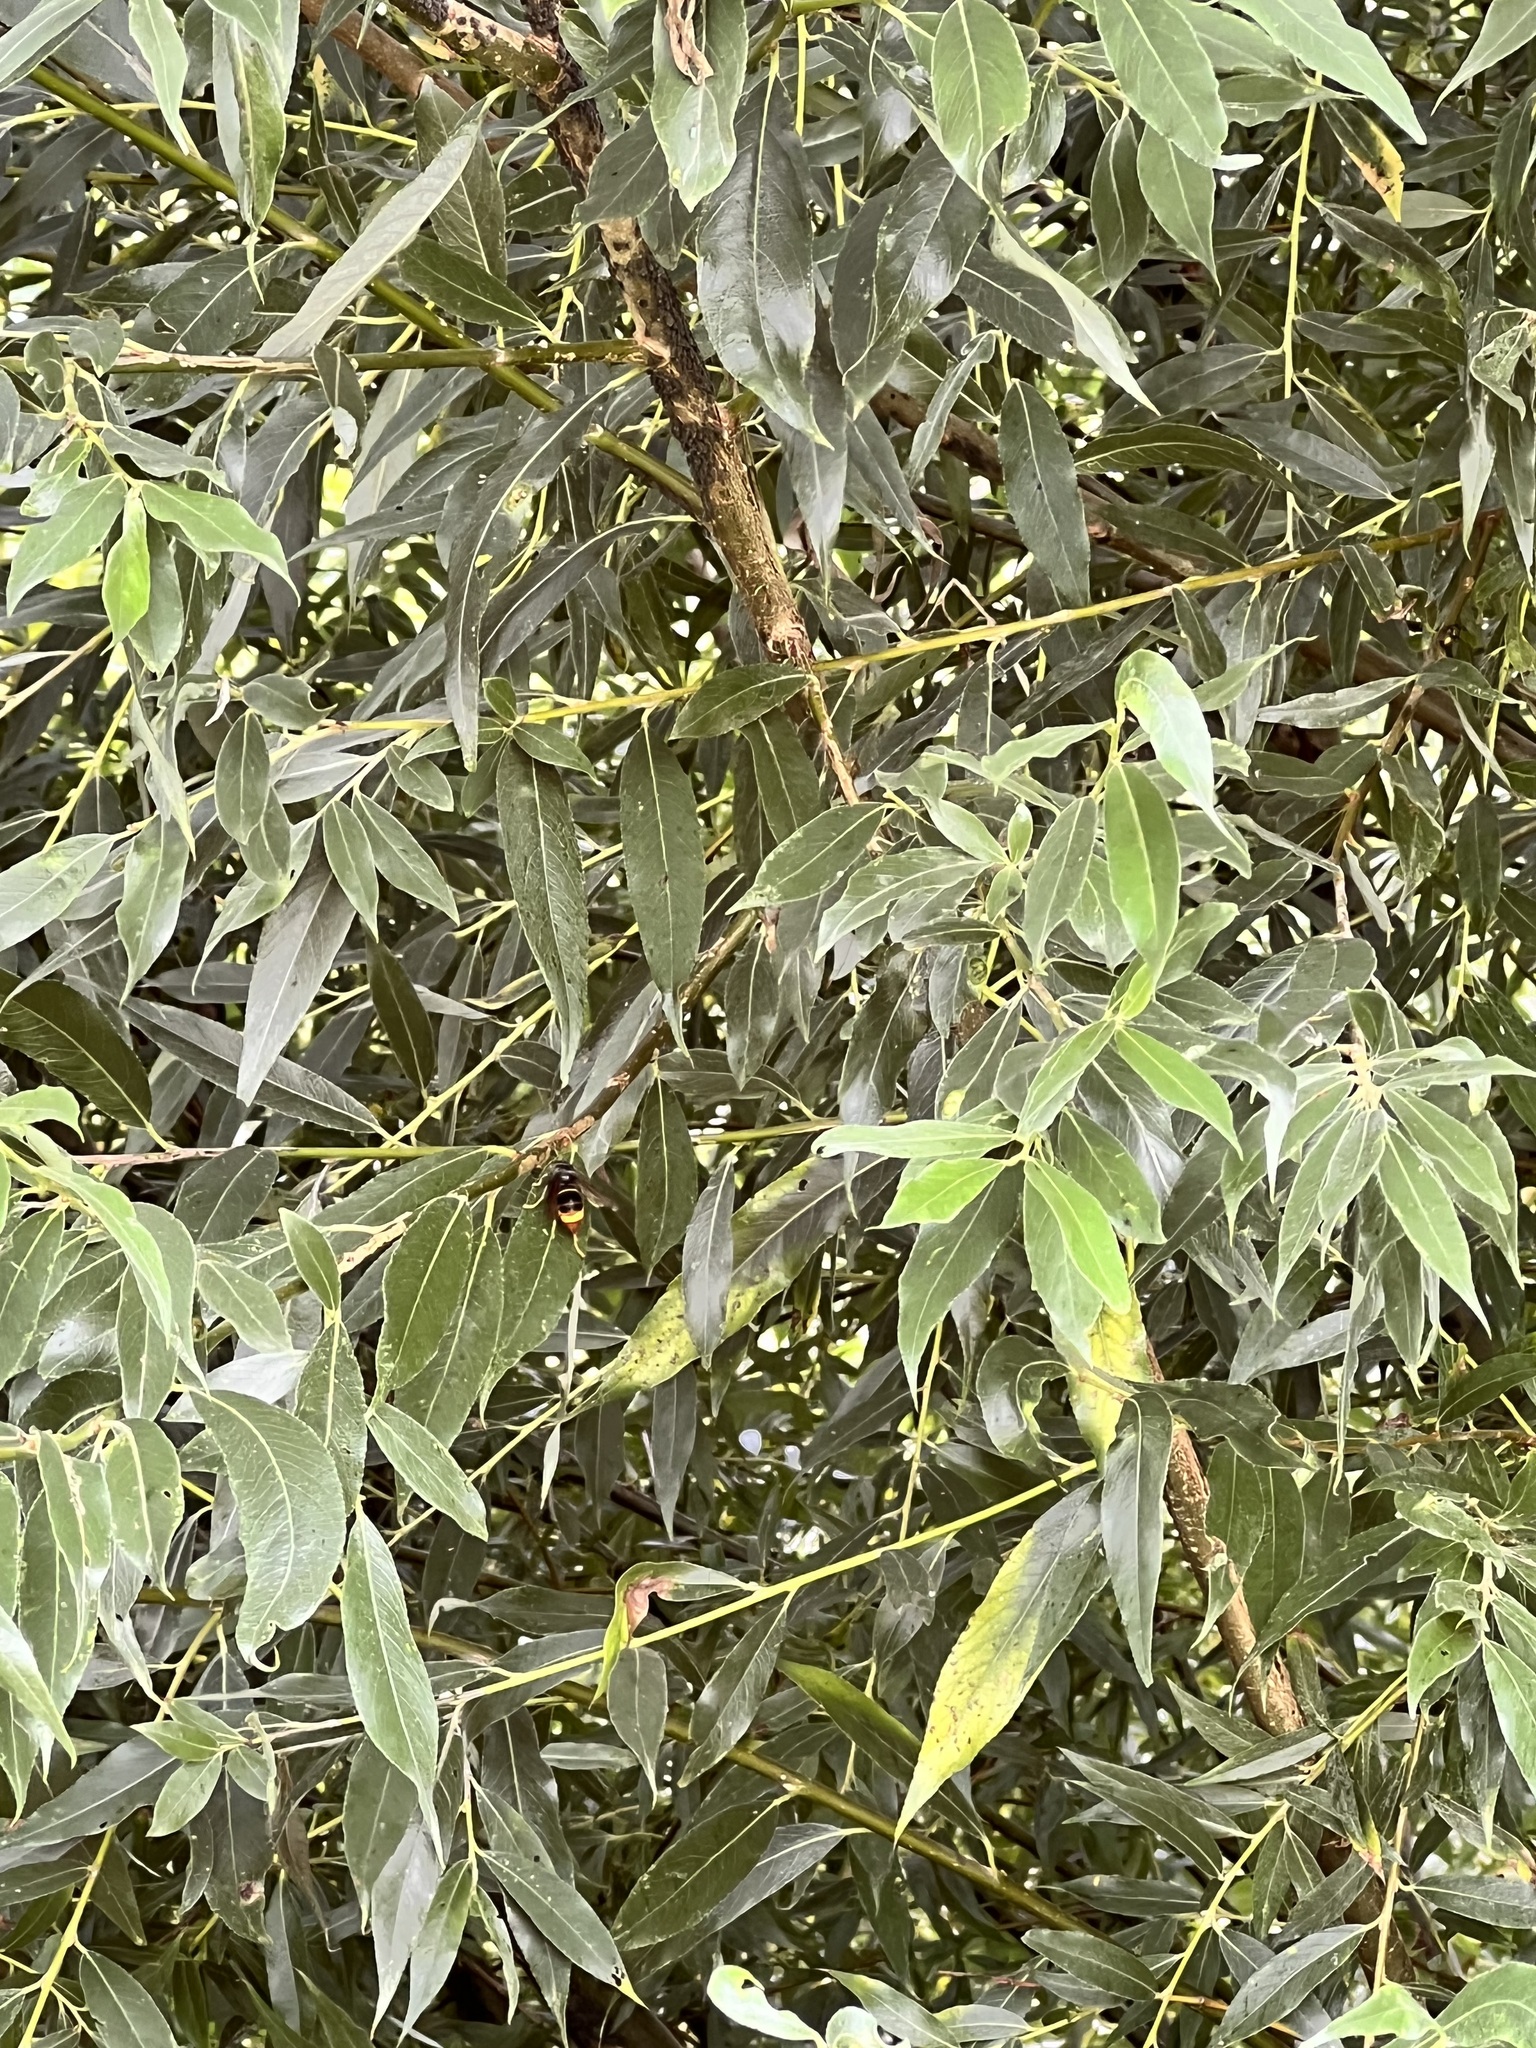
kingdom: Animalia
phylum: Arthropoda
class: Insecta
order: Hymenoptera
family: Vespidae
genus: Vespa
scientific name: Vespa velutina
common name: Asian hornet
